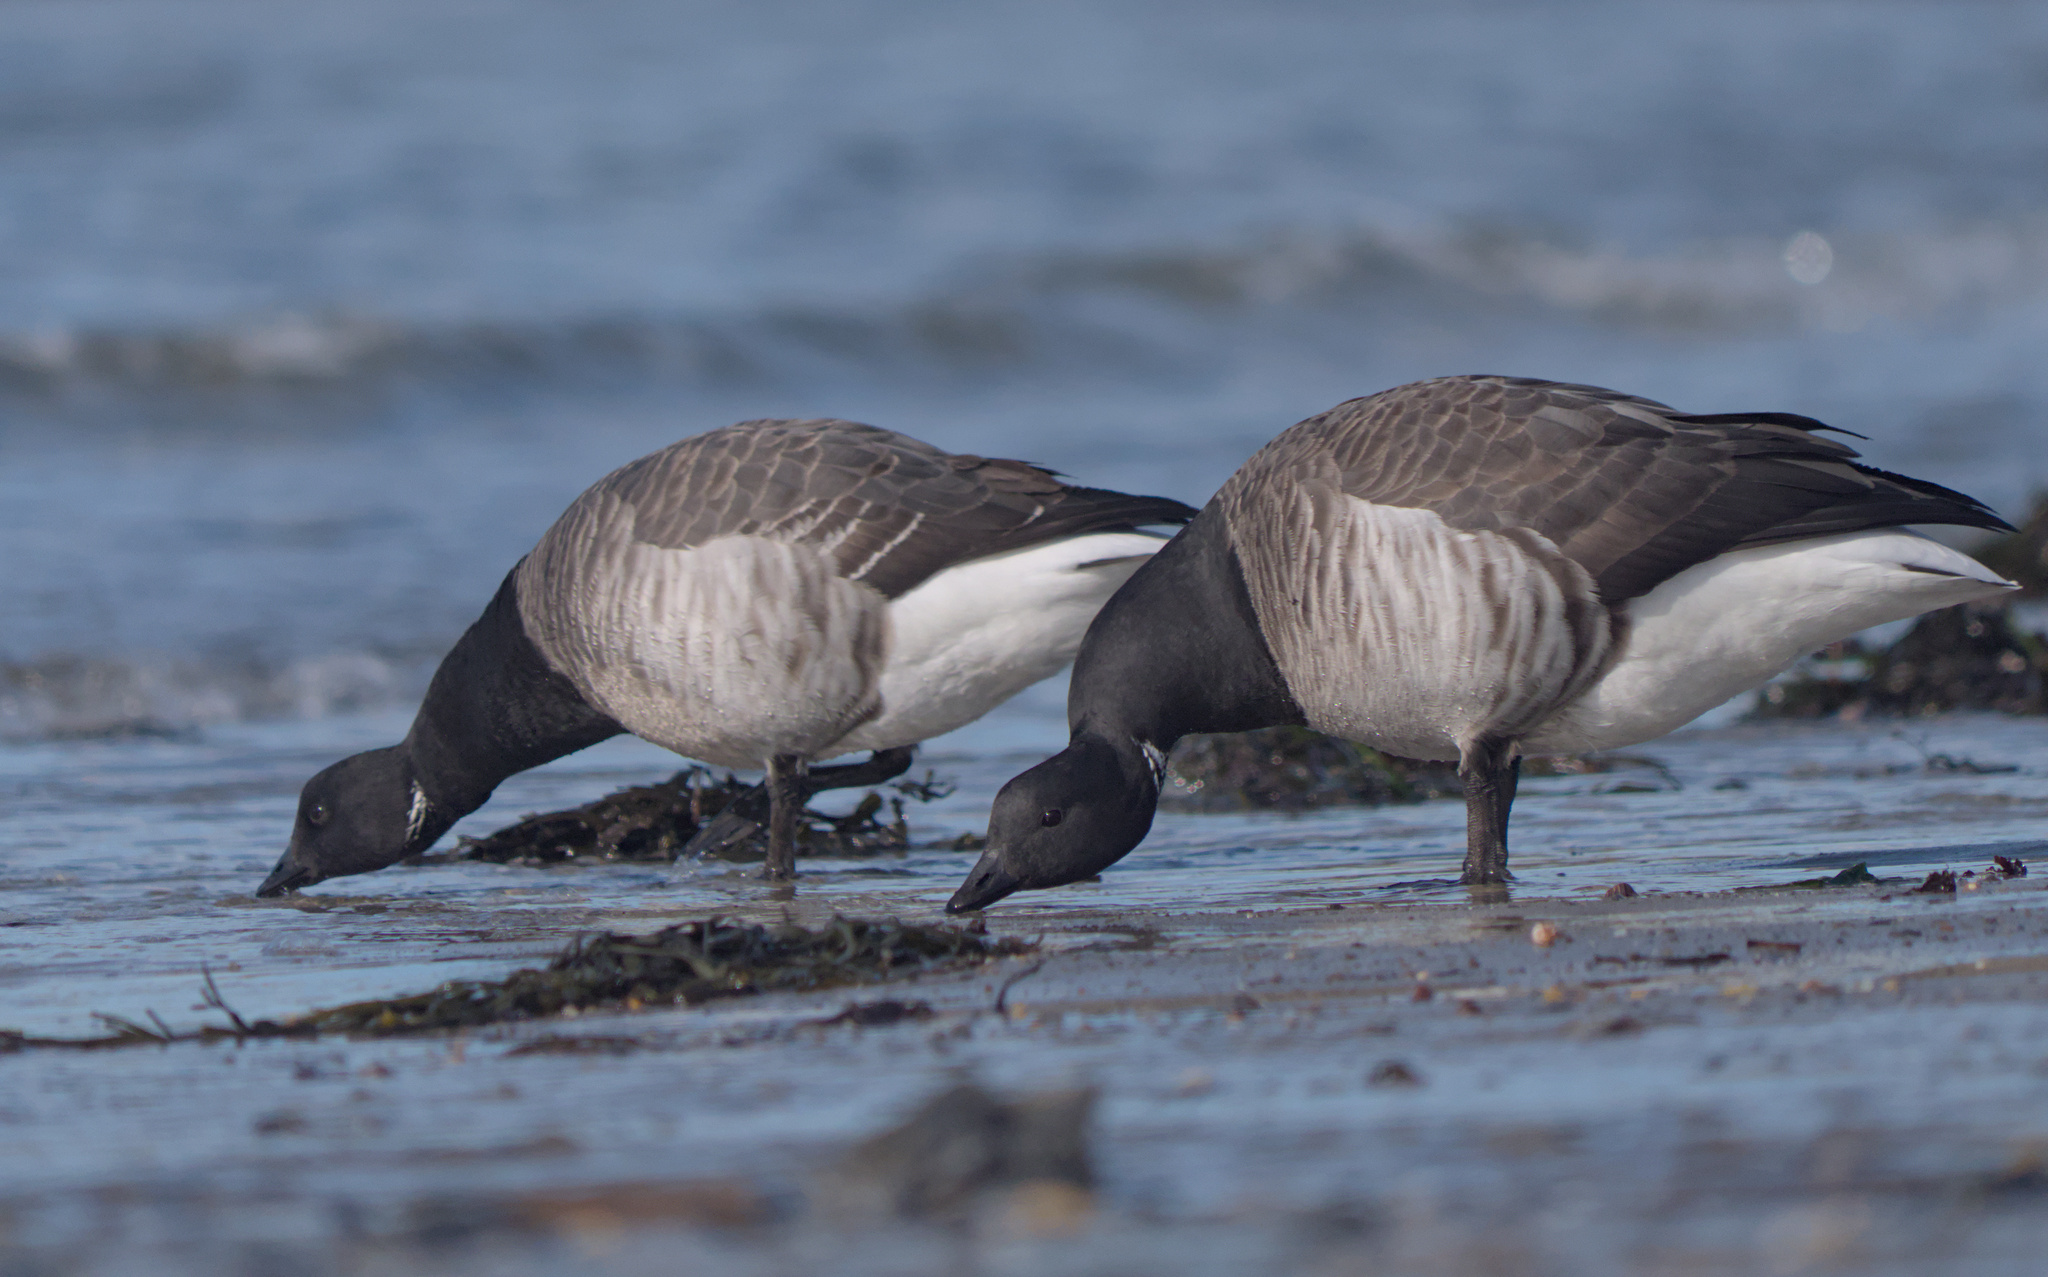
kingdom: Animalia
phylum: Chordata
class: Aves
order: Anseriformes
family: Anatidae
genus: Branta
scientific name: Branta bernicla
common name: Brant goose
